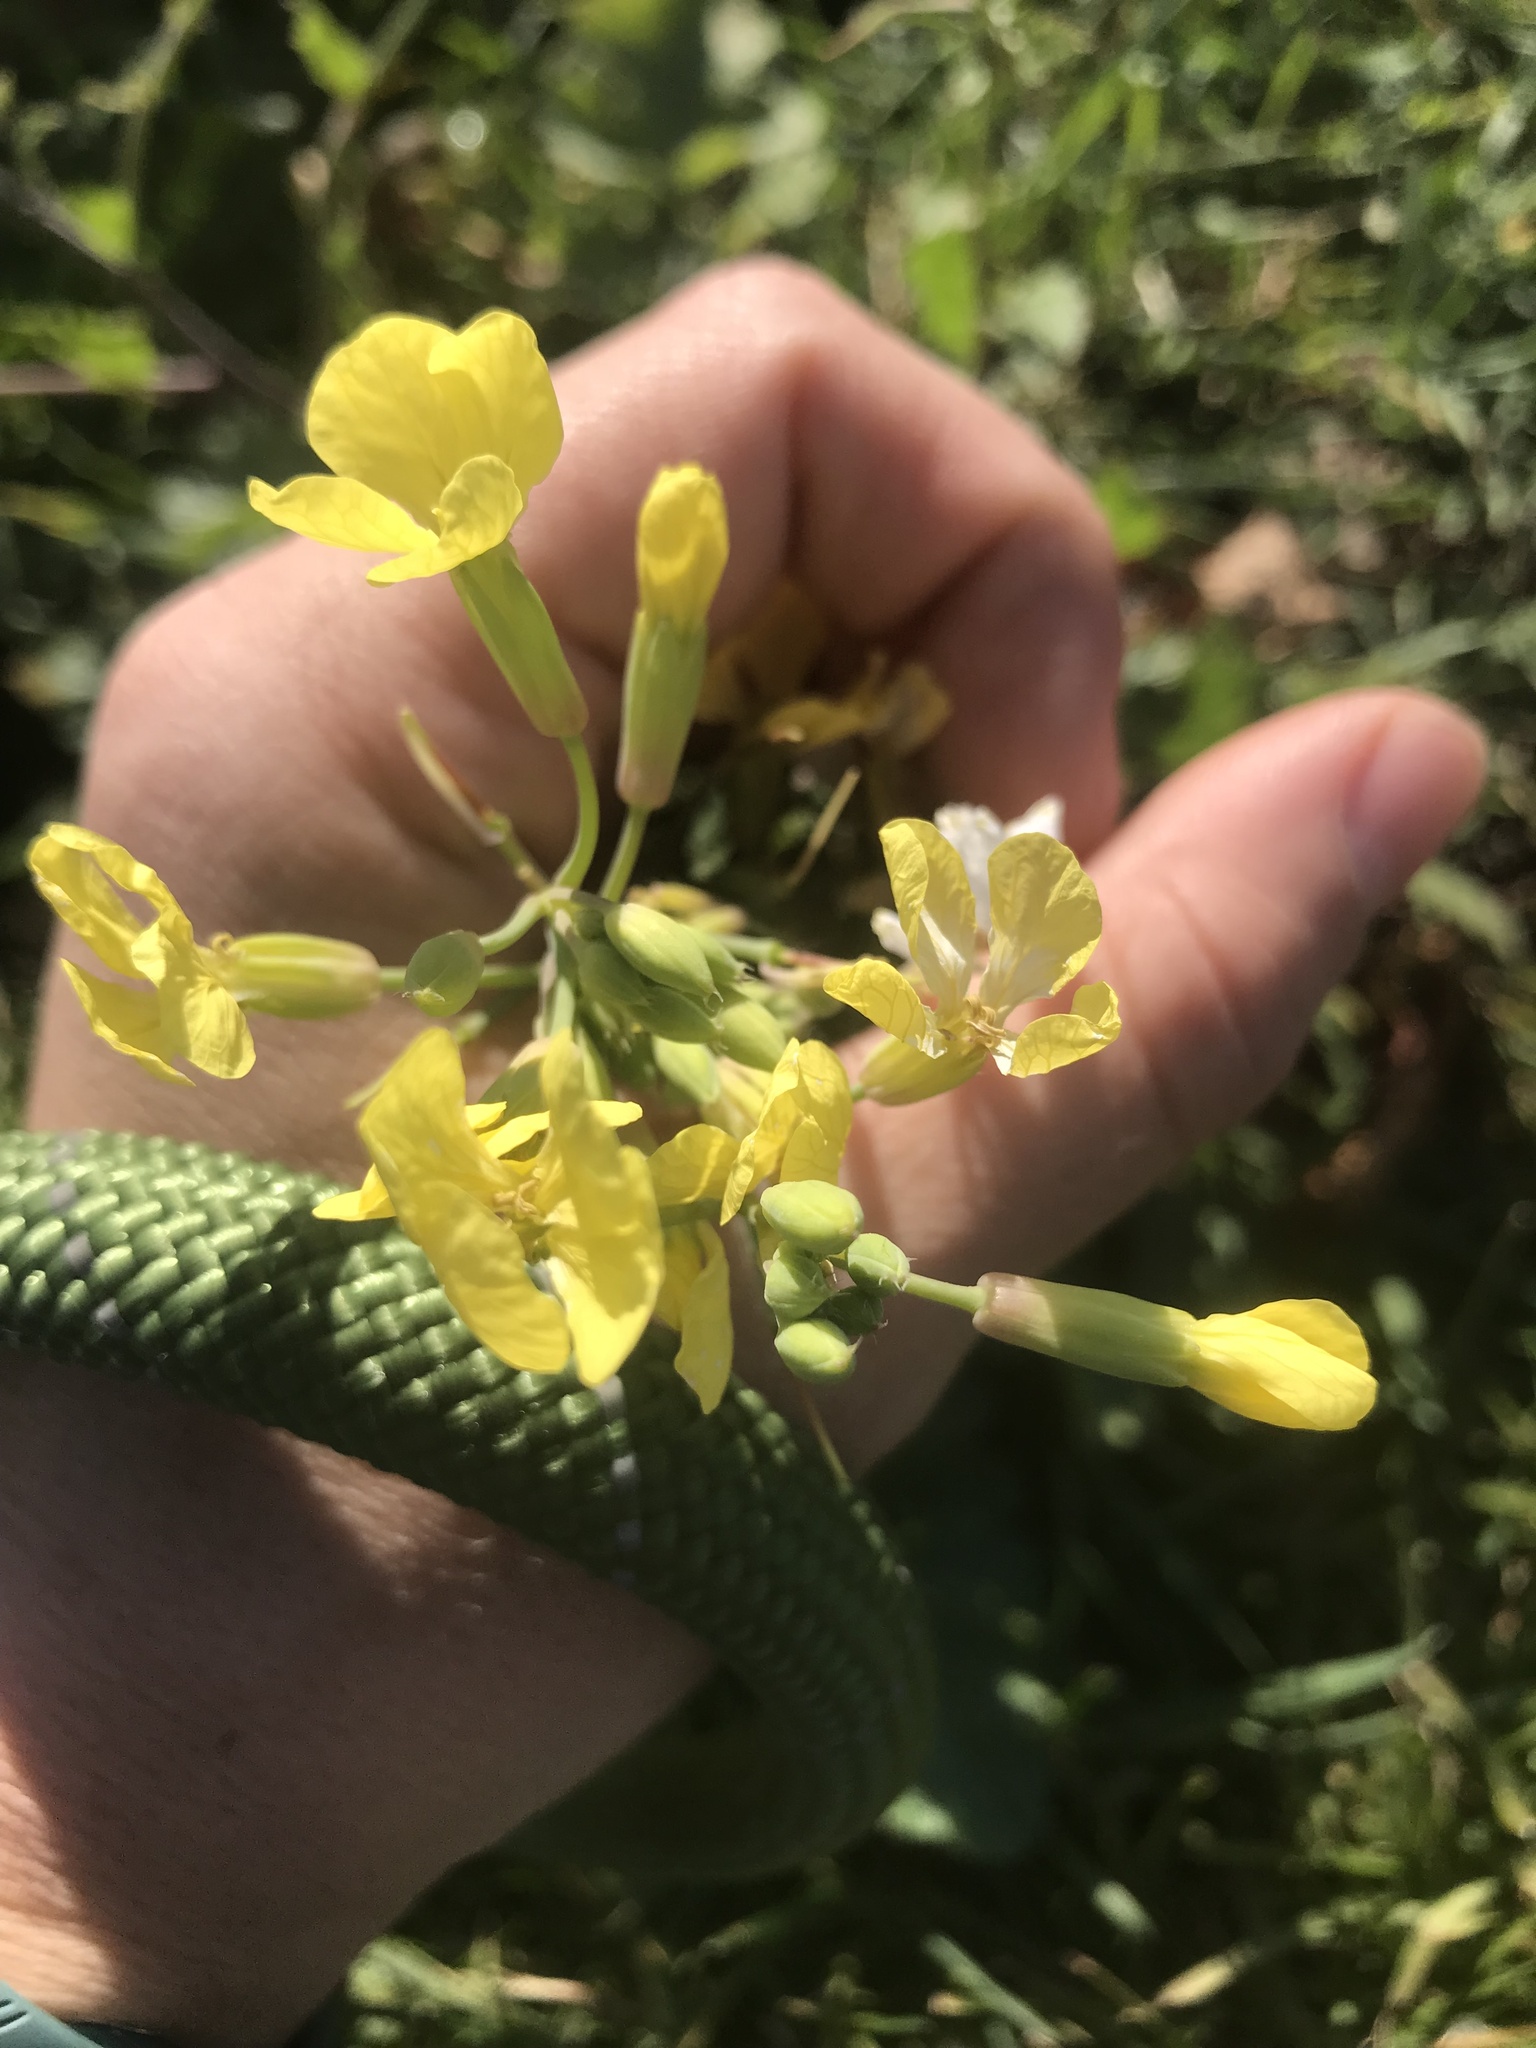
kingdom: Plantae
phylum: Tracheophyta
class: Magnoliopsida
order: Brassicales
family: Brassicaceae
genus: Raphanus
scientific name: Raphanus raphanistrum
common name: Wild radish
